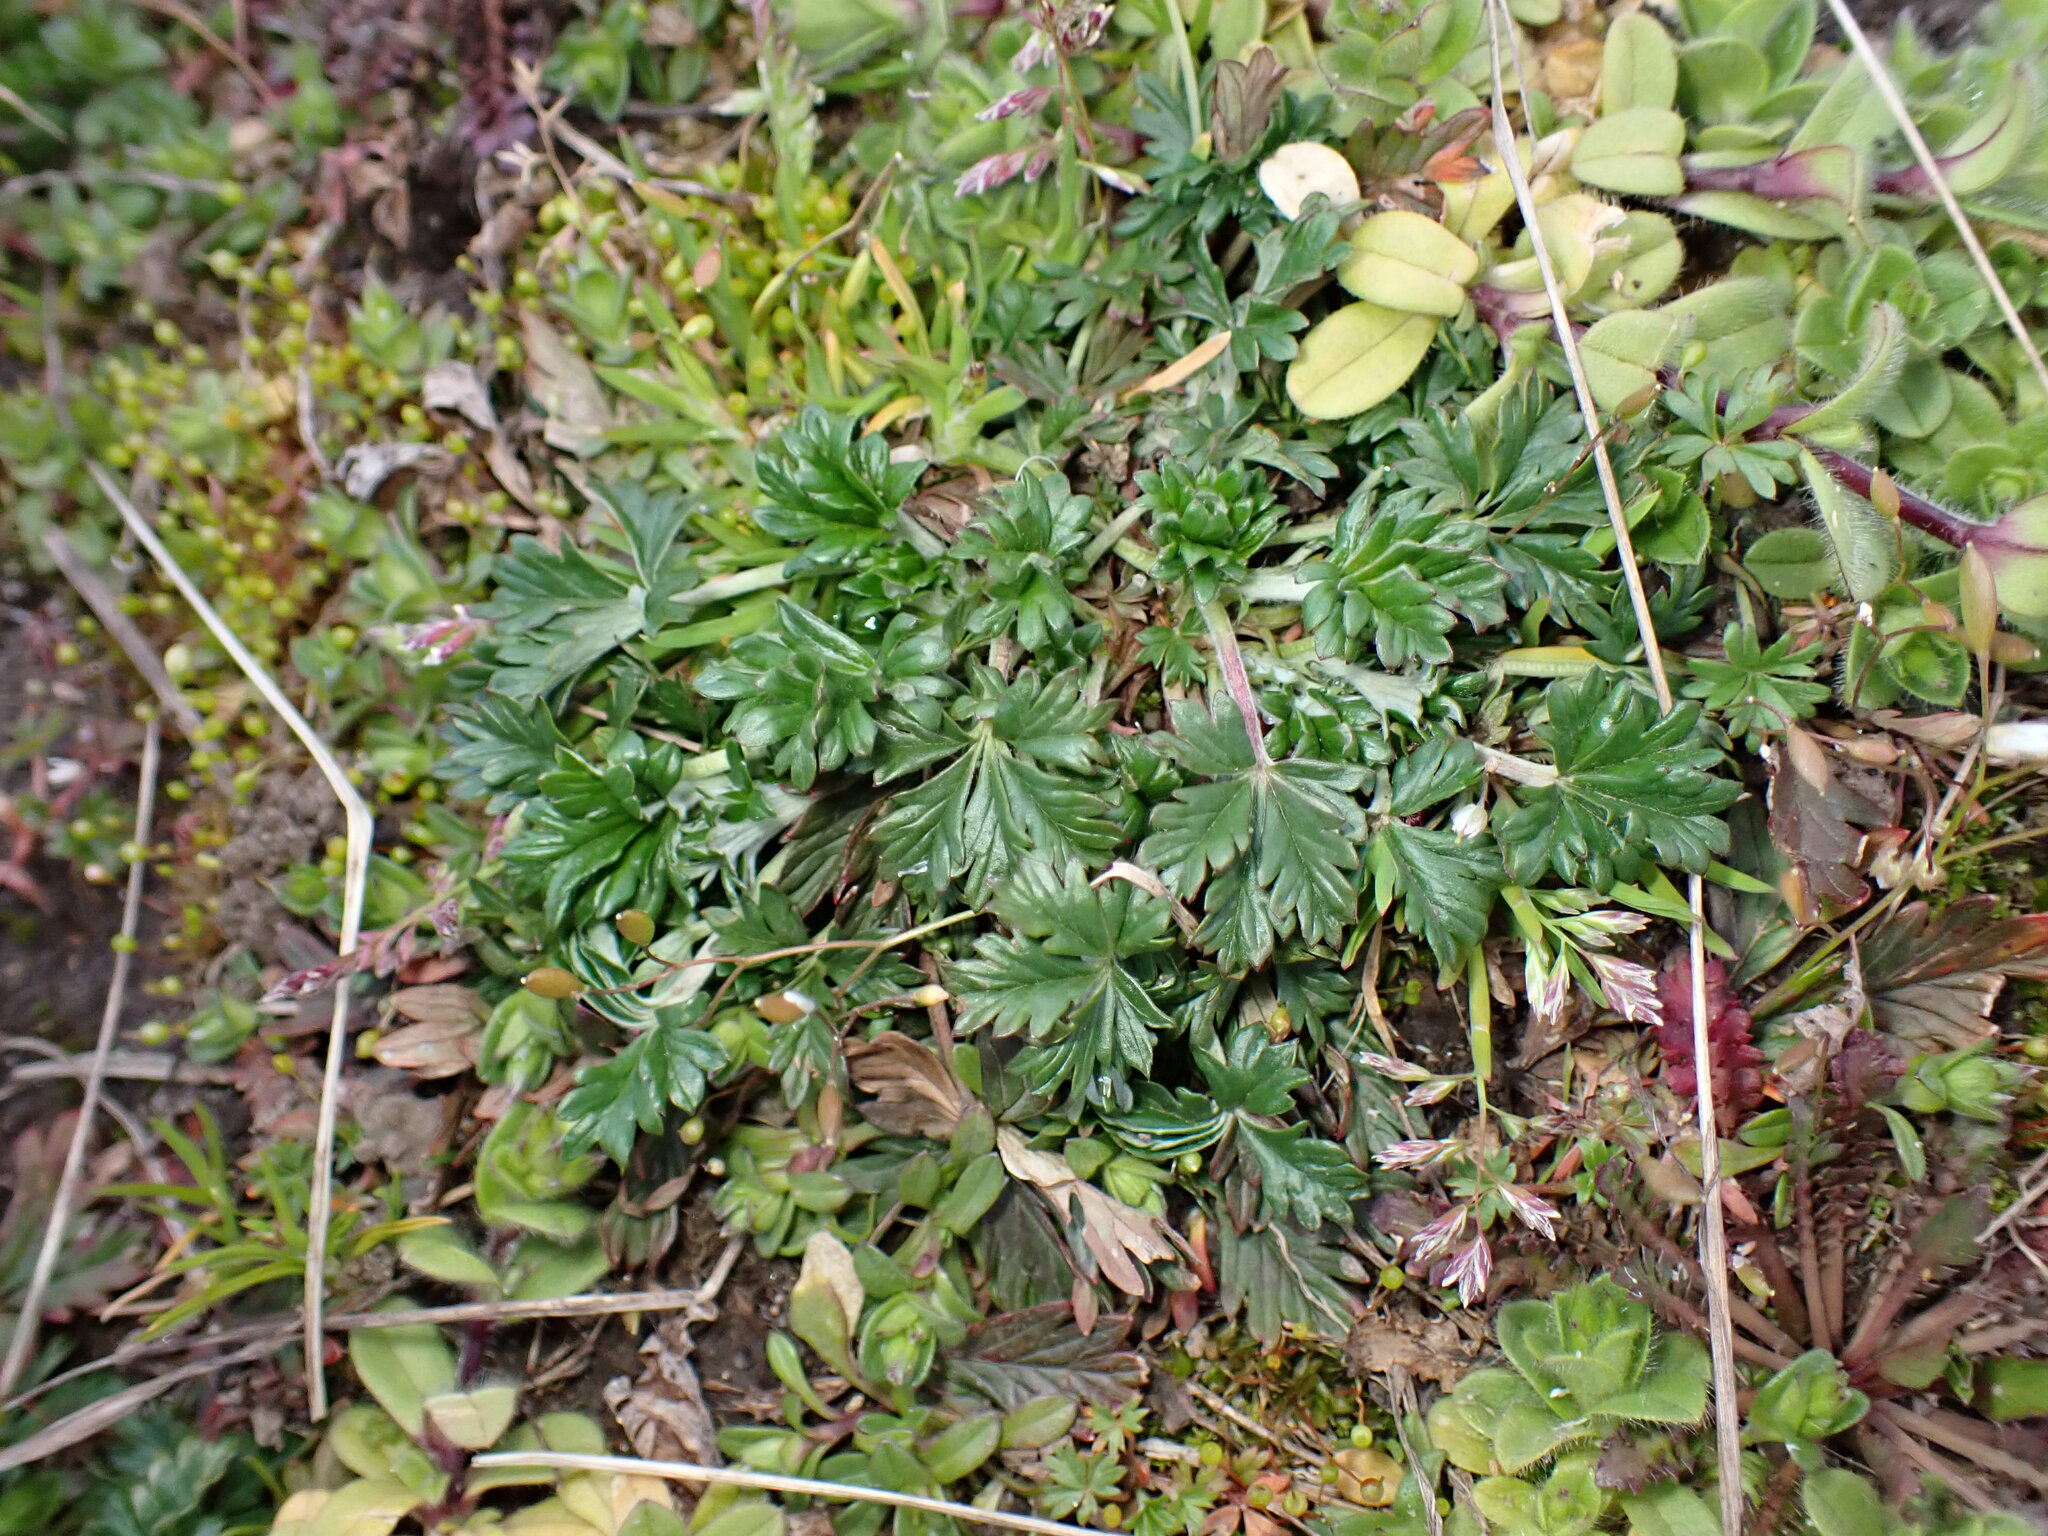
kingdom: Plantae
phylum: Tracheophyta
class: Magnoliopsida
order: Rosales
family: Rosaceae
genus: Potentilla
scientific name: Potentilla argentea
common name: Hoary cinquefoil
